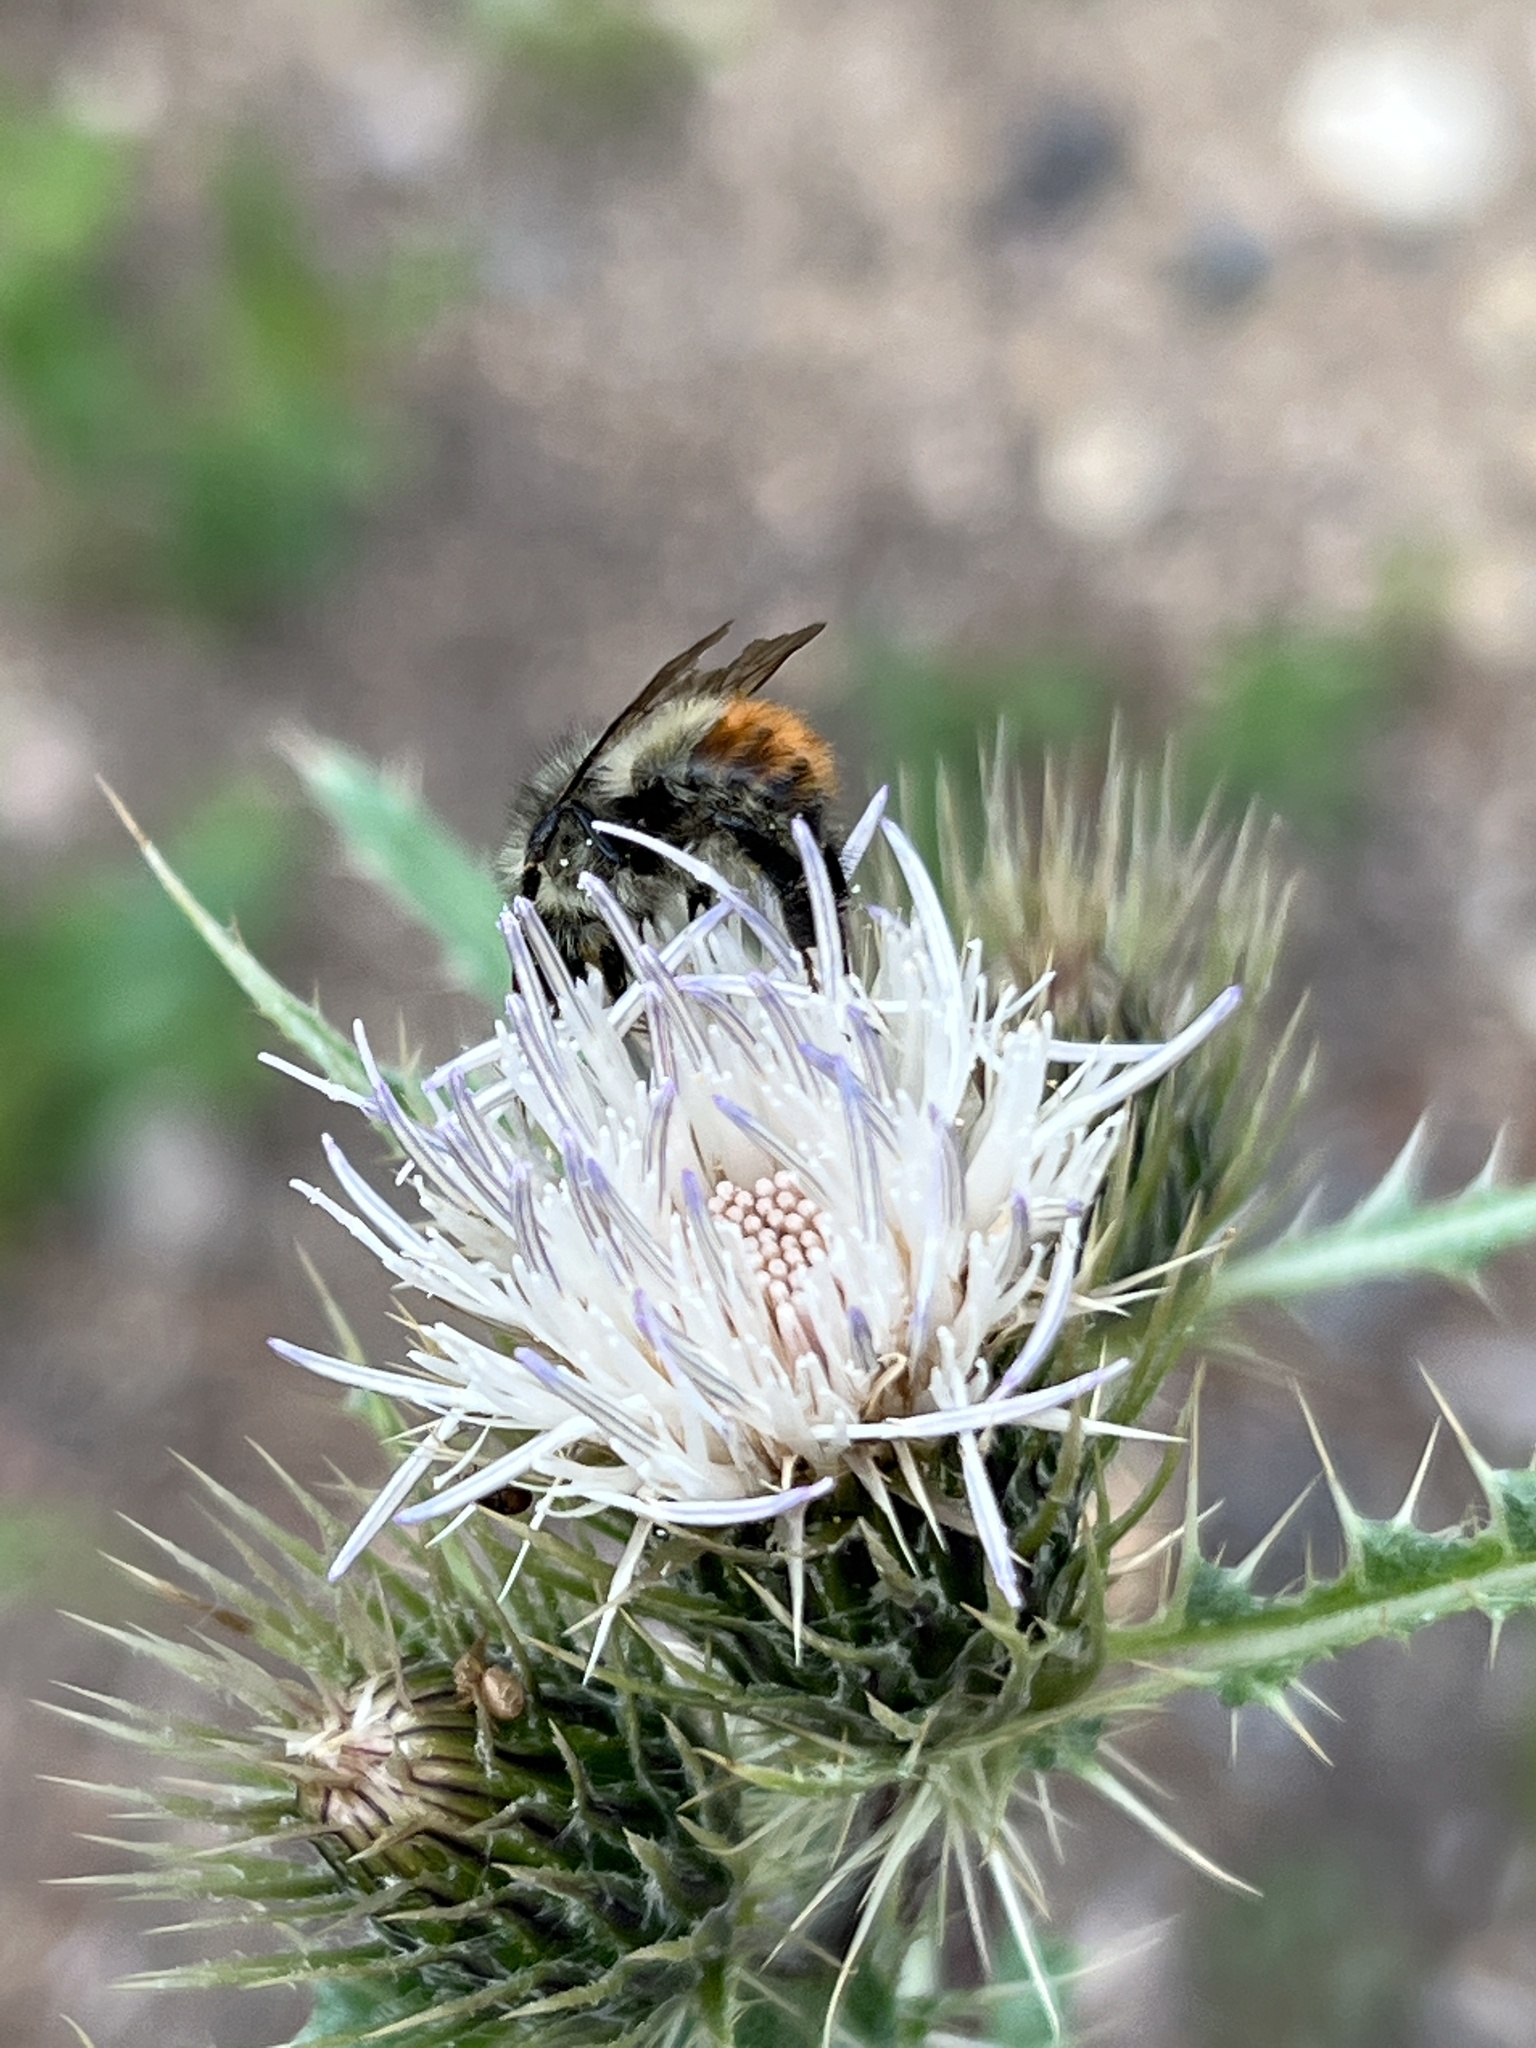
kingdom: Animalia
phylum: Arthropoda
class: Insecta
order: Hymenoptera
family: Apidae
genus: Bombus
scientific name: Bombus flavifrons
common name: Yellow head bumble bee
